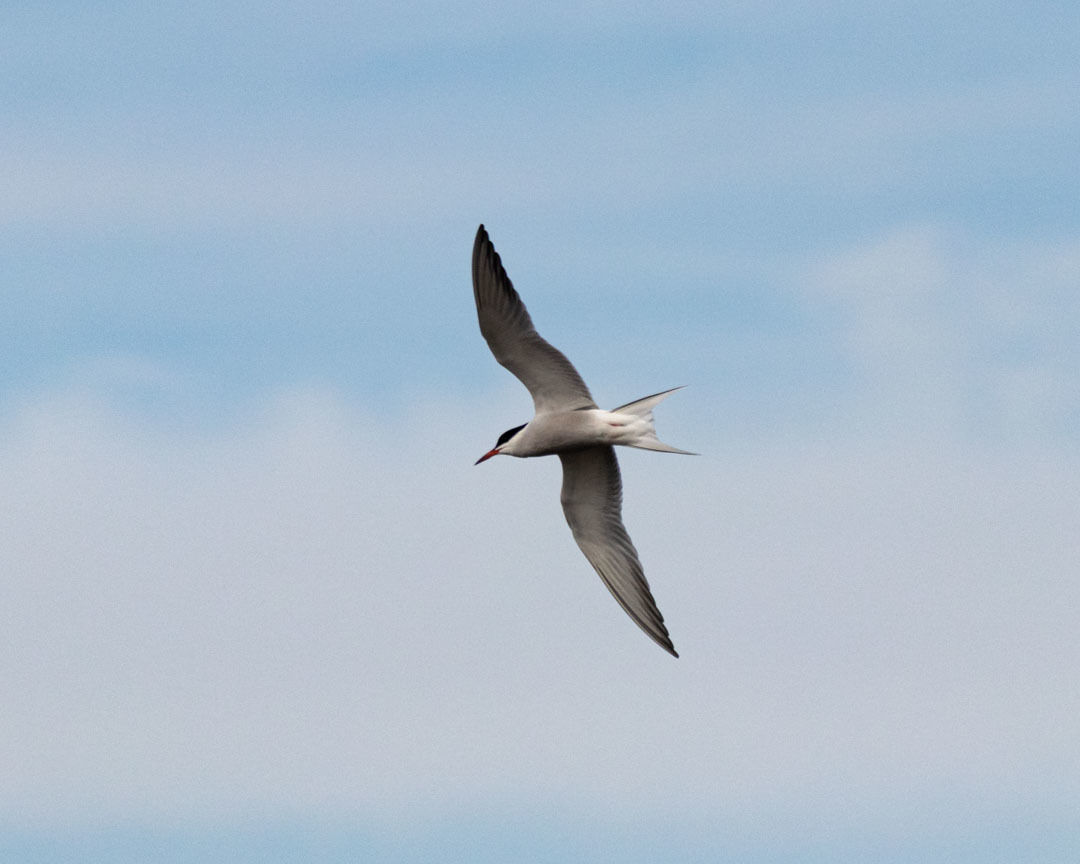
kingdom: Animalia
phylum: Chordata
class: Aves
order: Charadriiformes
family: Laridae
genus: Sterna
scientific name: Sterna hirundo
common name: Common tern
